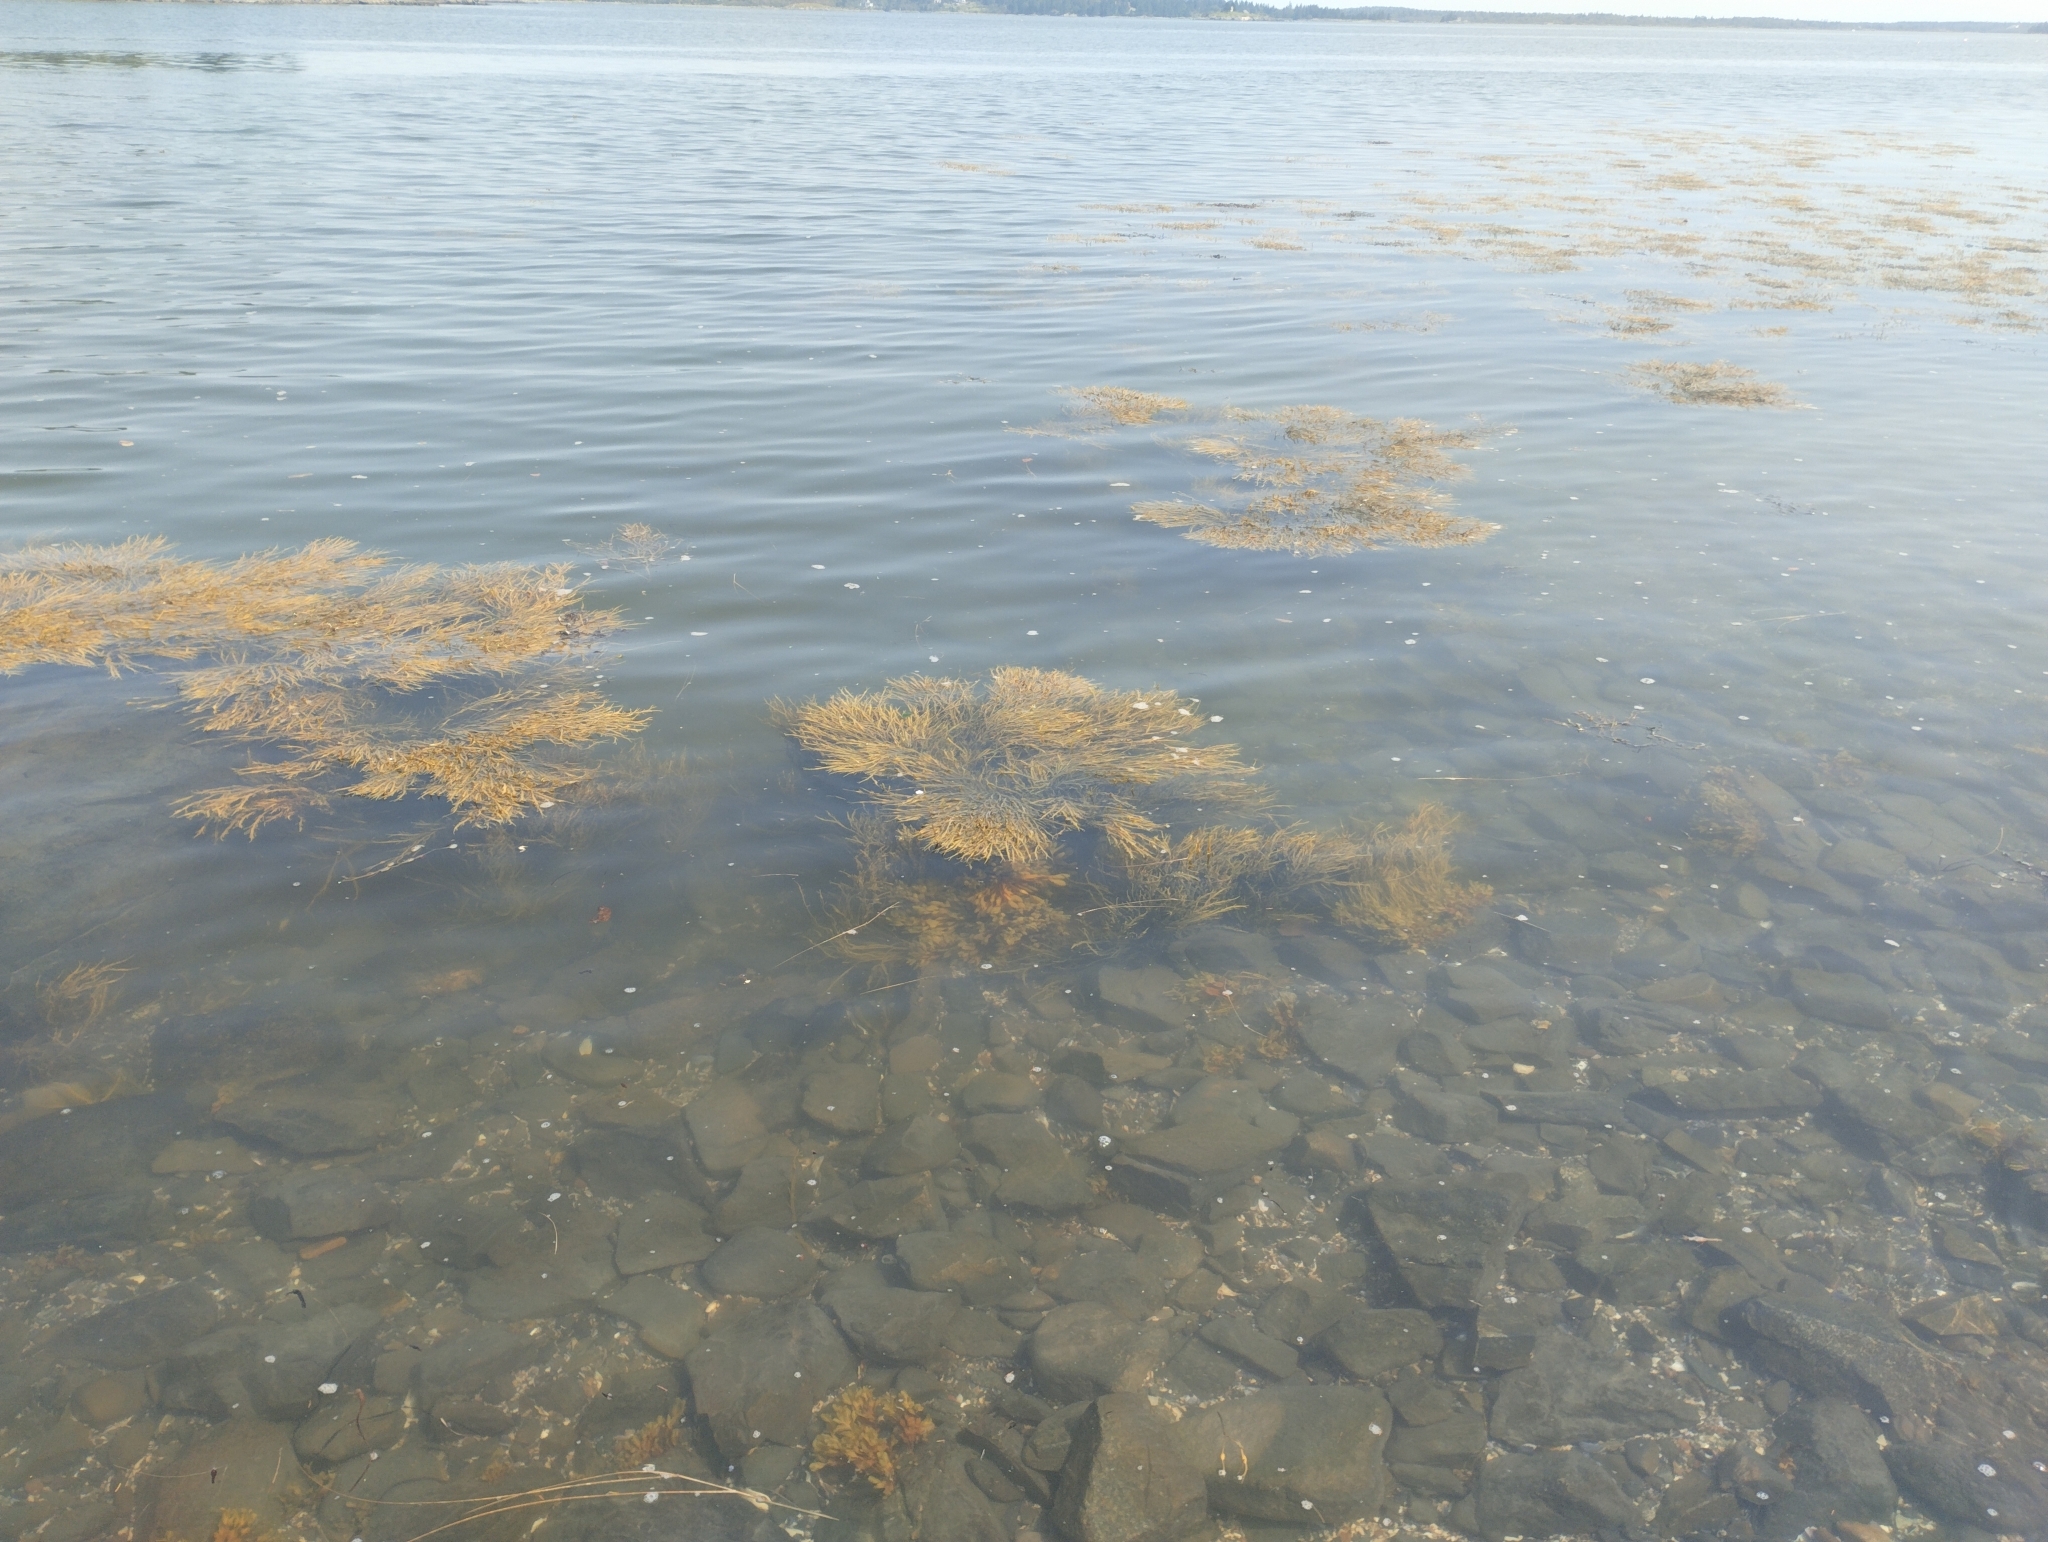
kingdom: Chromista
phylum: Ochrophyta
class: Phaeophyceae
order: Fucales
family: Fucaceae
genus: Ascophyllum
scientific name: Ascophyllum nodosum
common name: Knotted wrack
